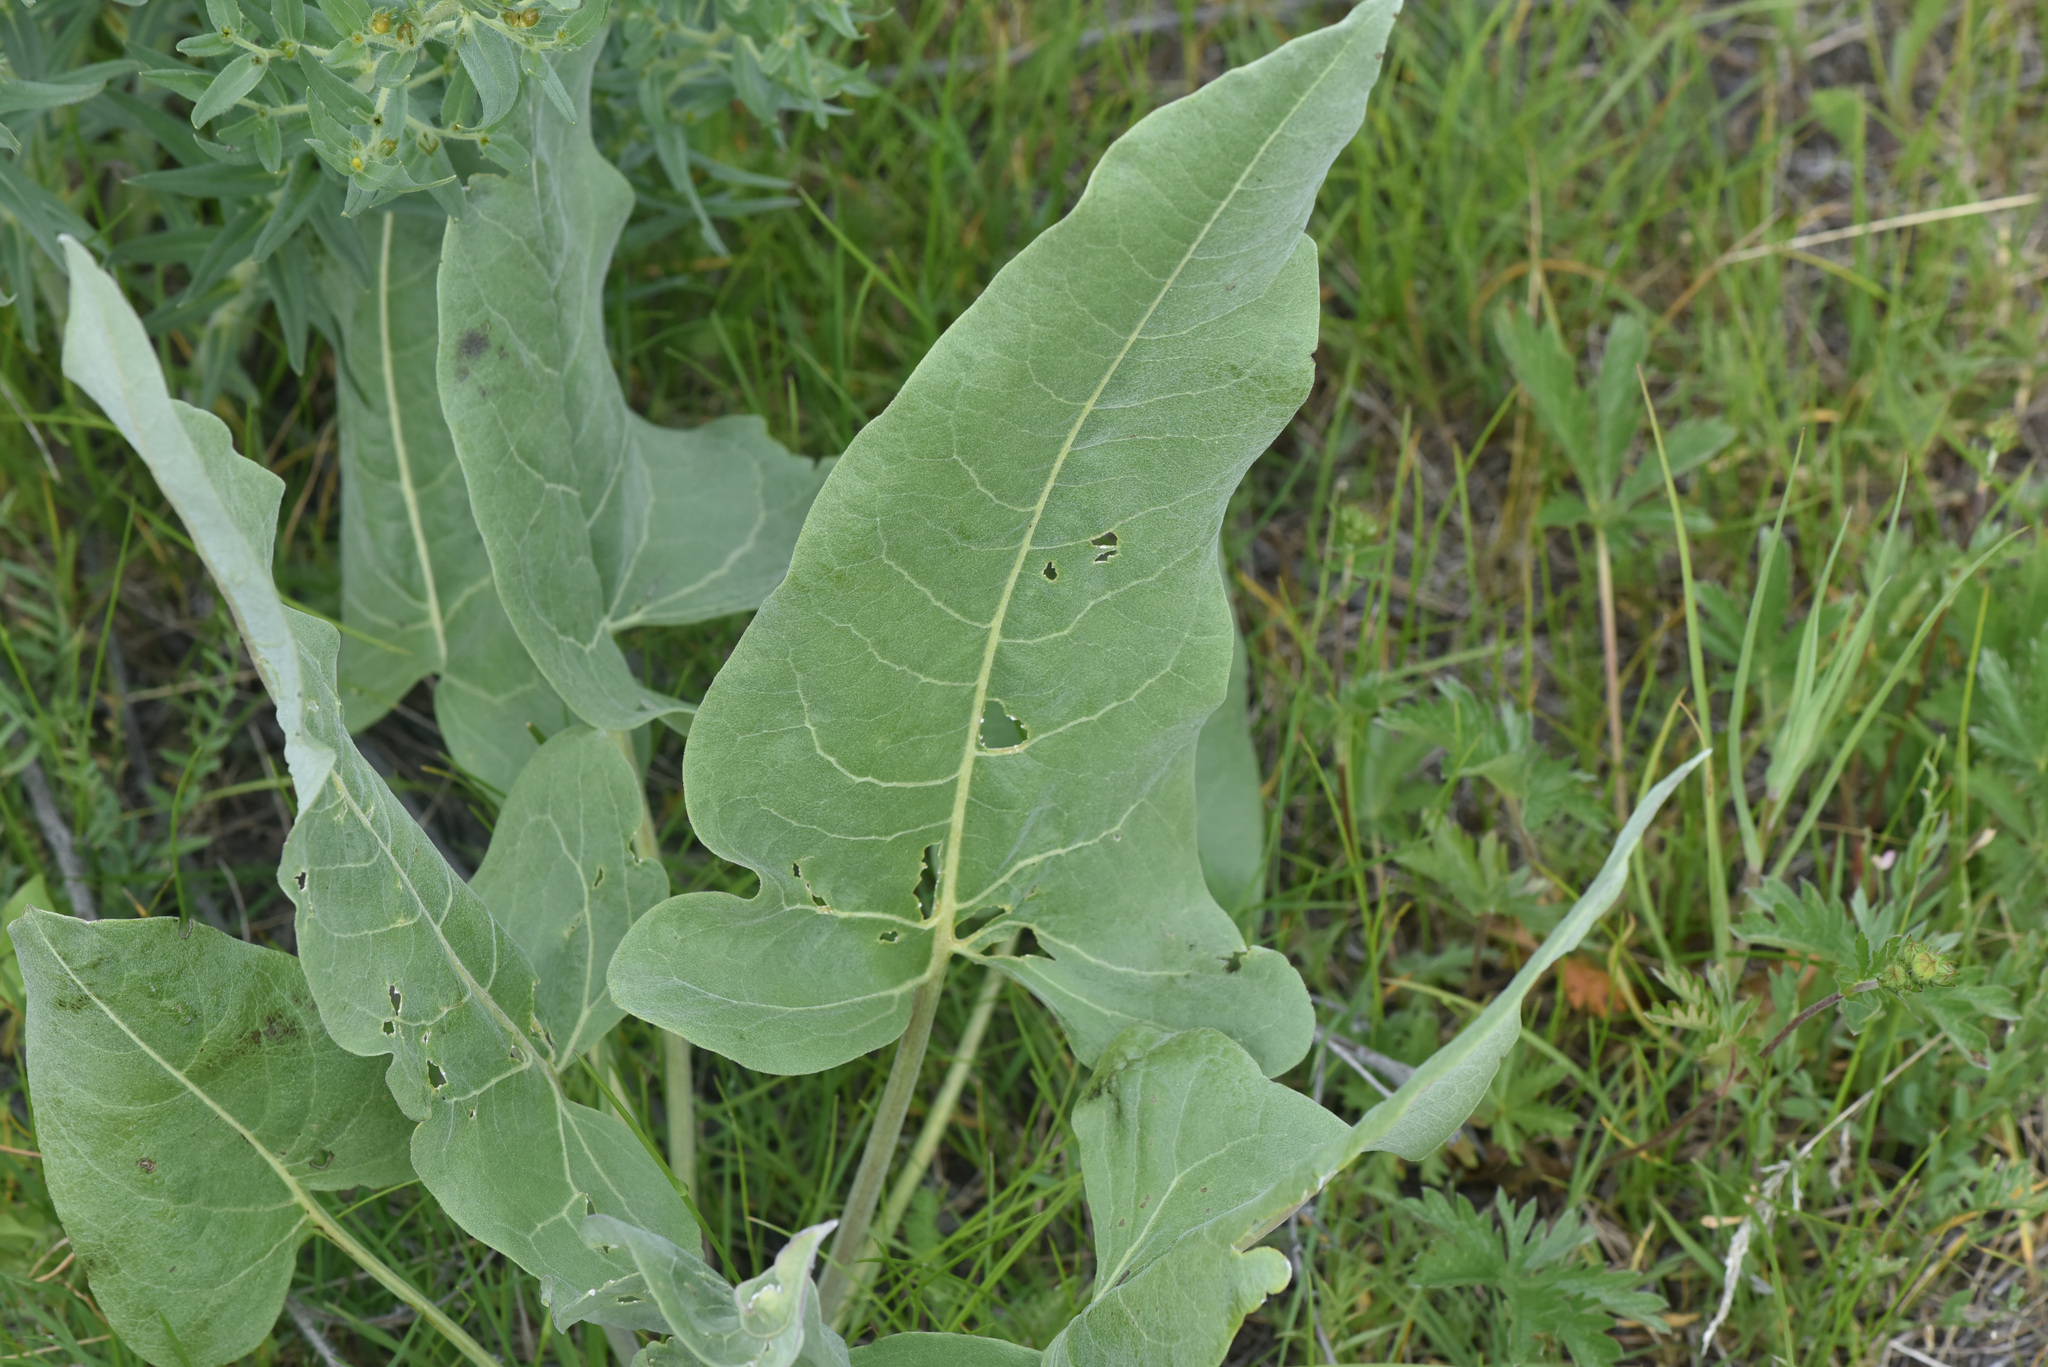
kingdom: Plantae
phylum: Tracheophyta
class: Magnoliopsida
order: Asterales
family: Asteraceae
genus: Wyethia
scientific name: Wyethia sagittata
